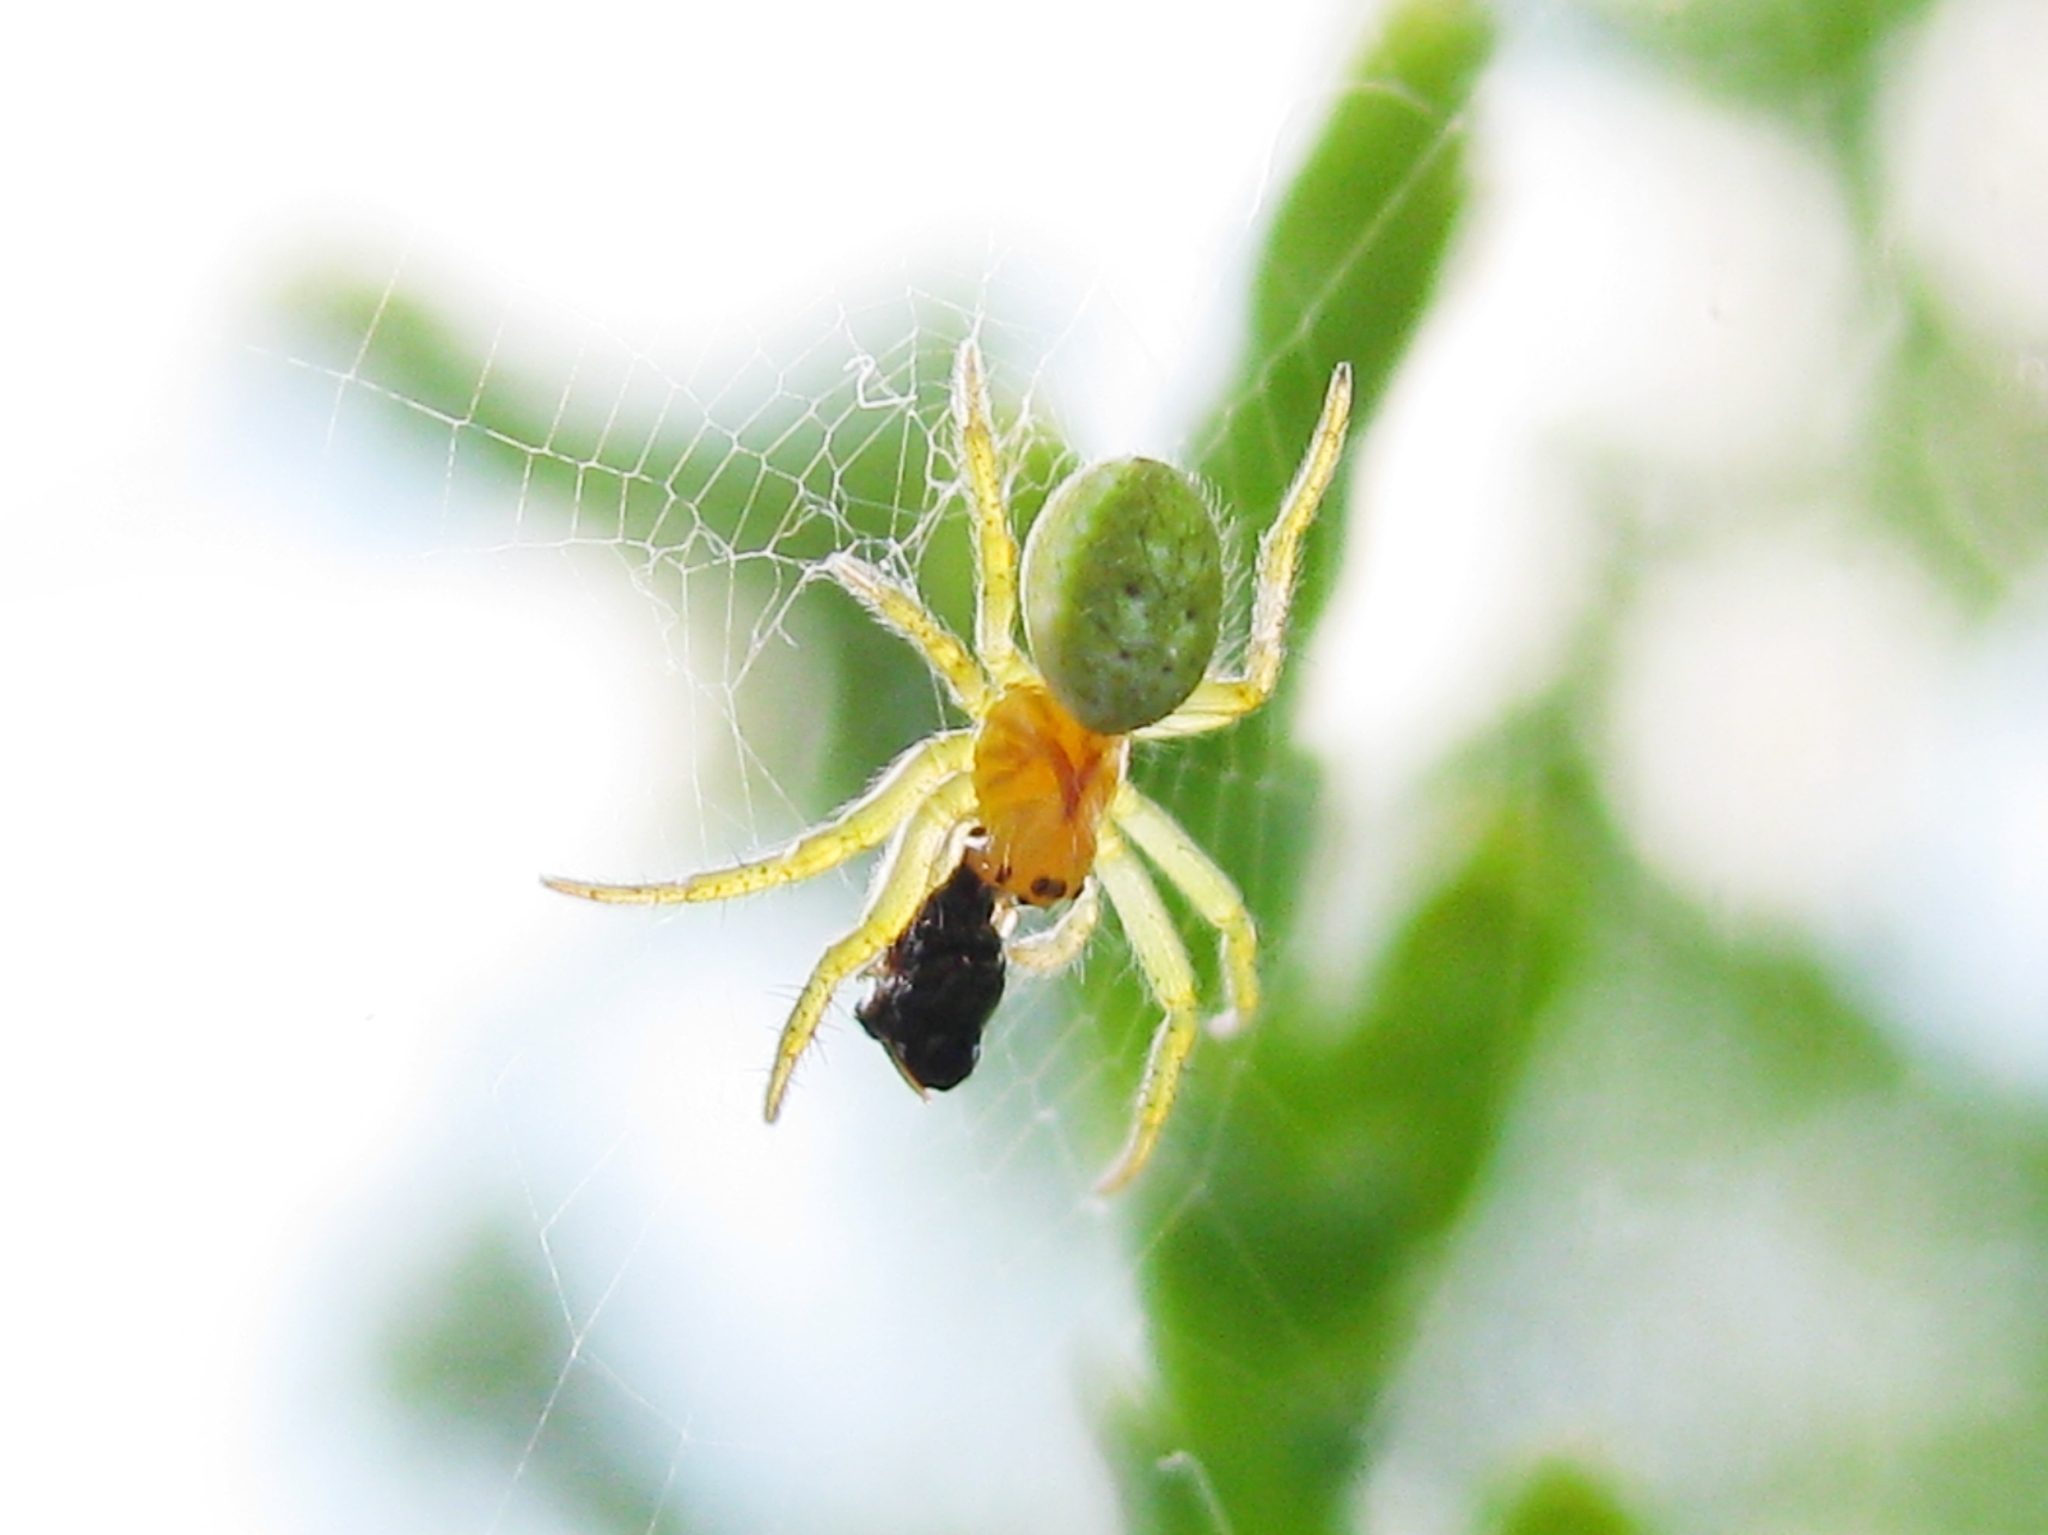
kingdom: Animalia
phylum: Arthropoda
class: Arachnida
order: Araneae
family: Araneidae
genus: Araniella
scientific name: Araniella
